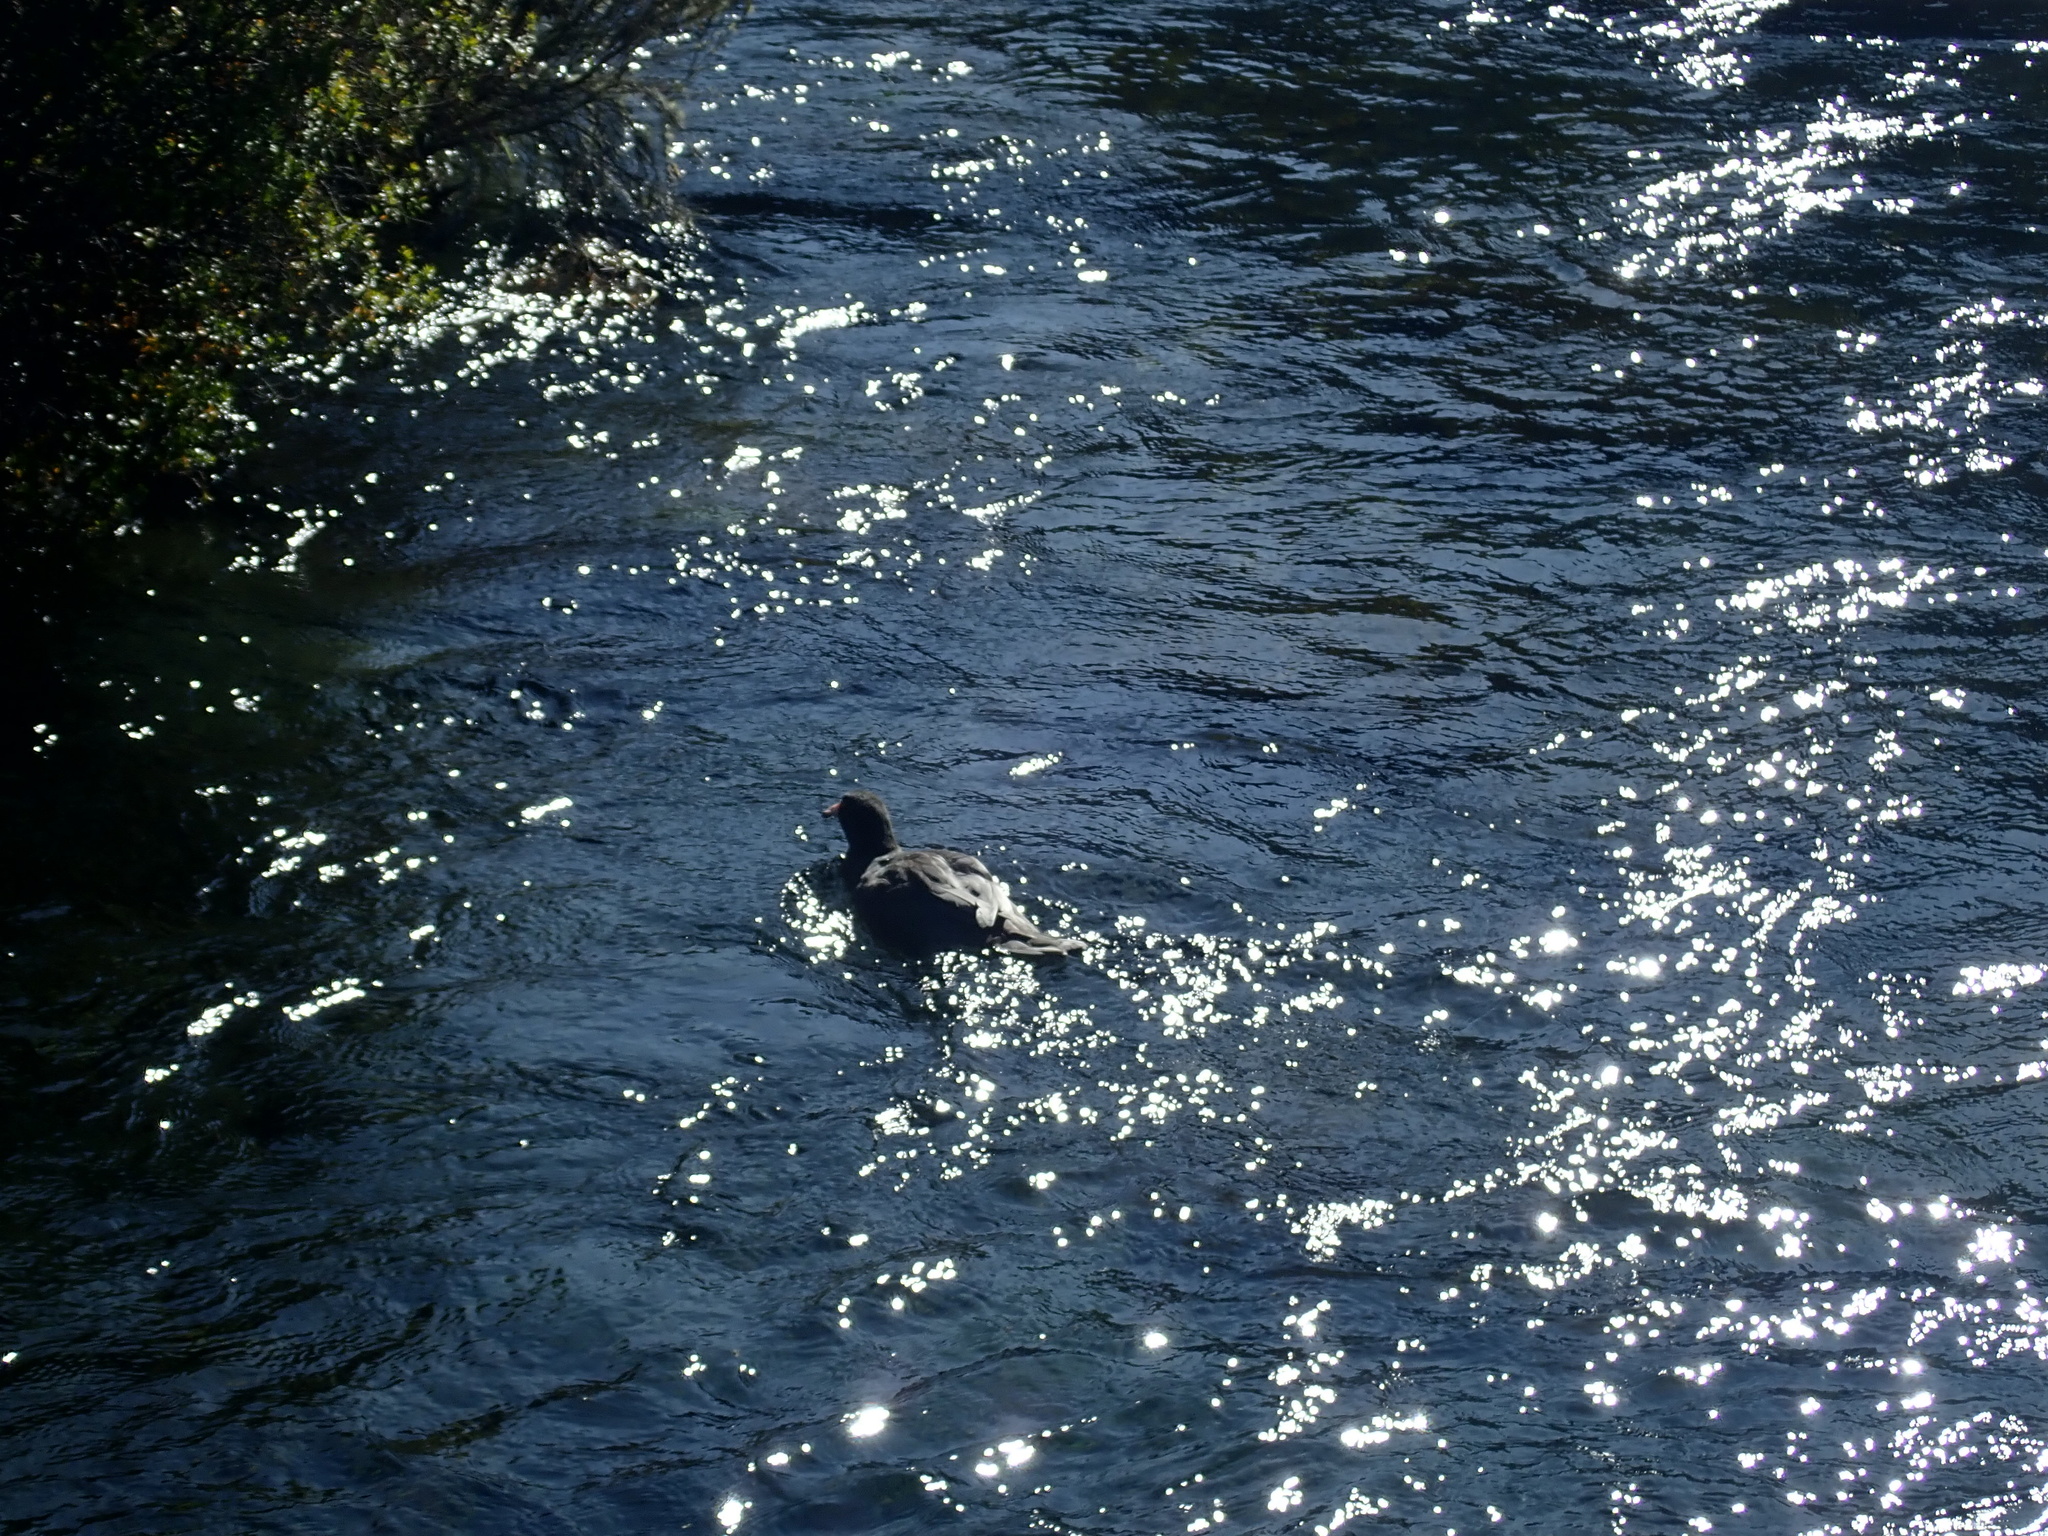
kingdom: Animalia
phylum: Chordata
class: Aves
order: Anseriformes
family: Anatidae
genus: Hymenolaimus
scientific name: Hymenolaimus malacorhynchos
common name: Blue duck
